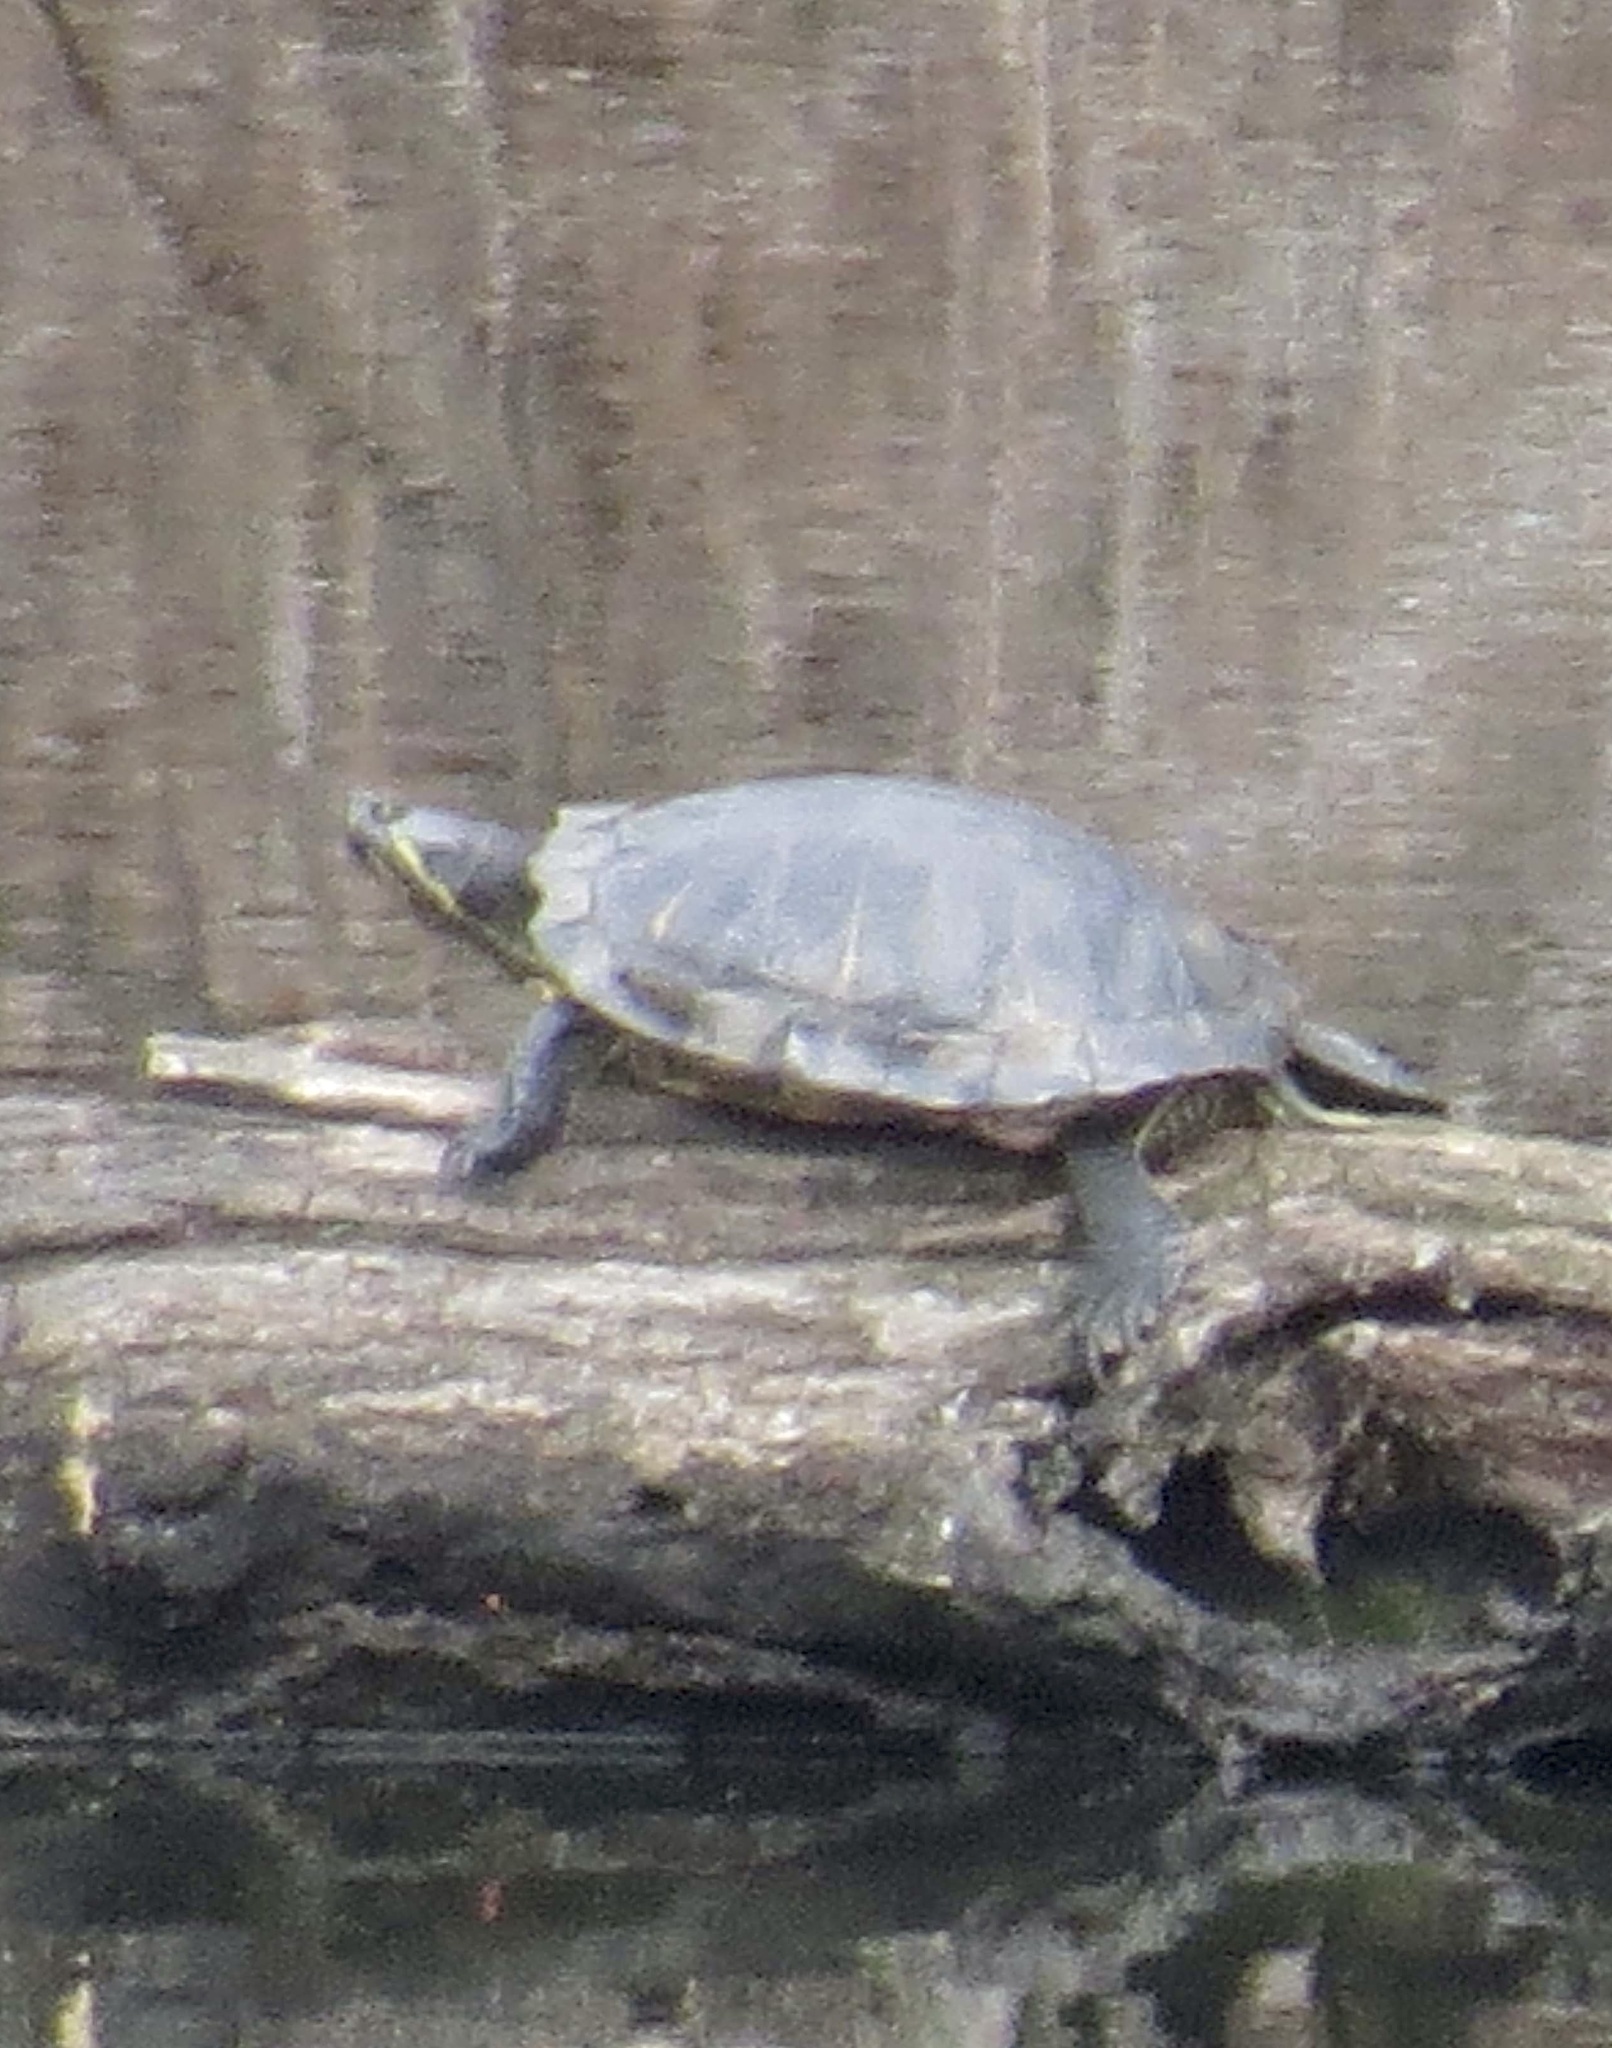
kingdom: Animalia
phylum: Chordata
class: Testudines
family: Emydidae
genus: Trachemys
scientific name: Trachemys scripta
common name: Slider
